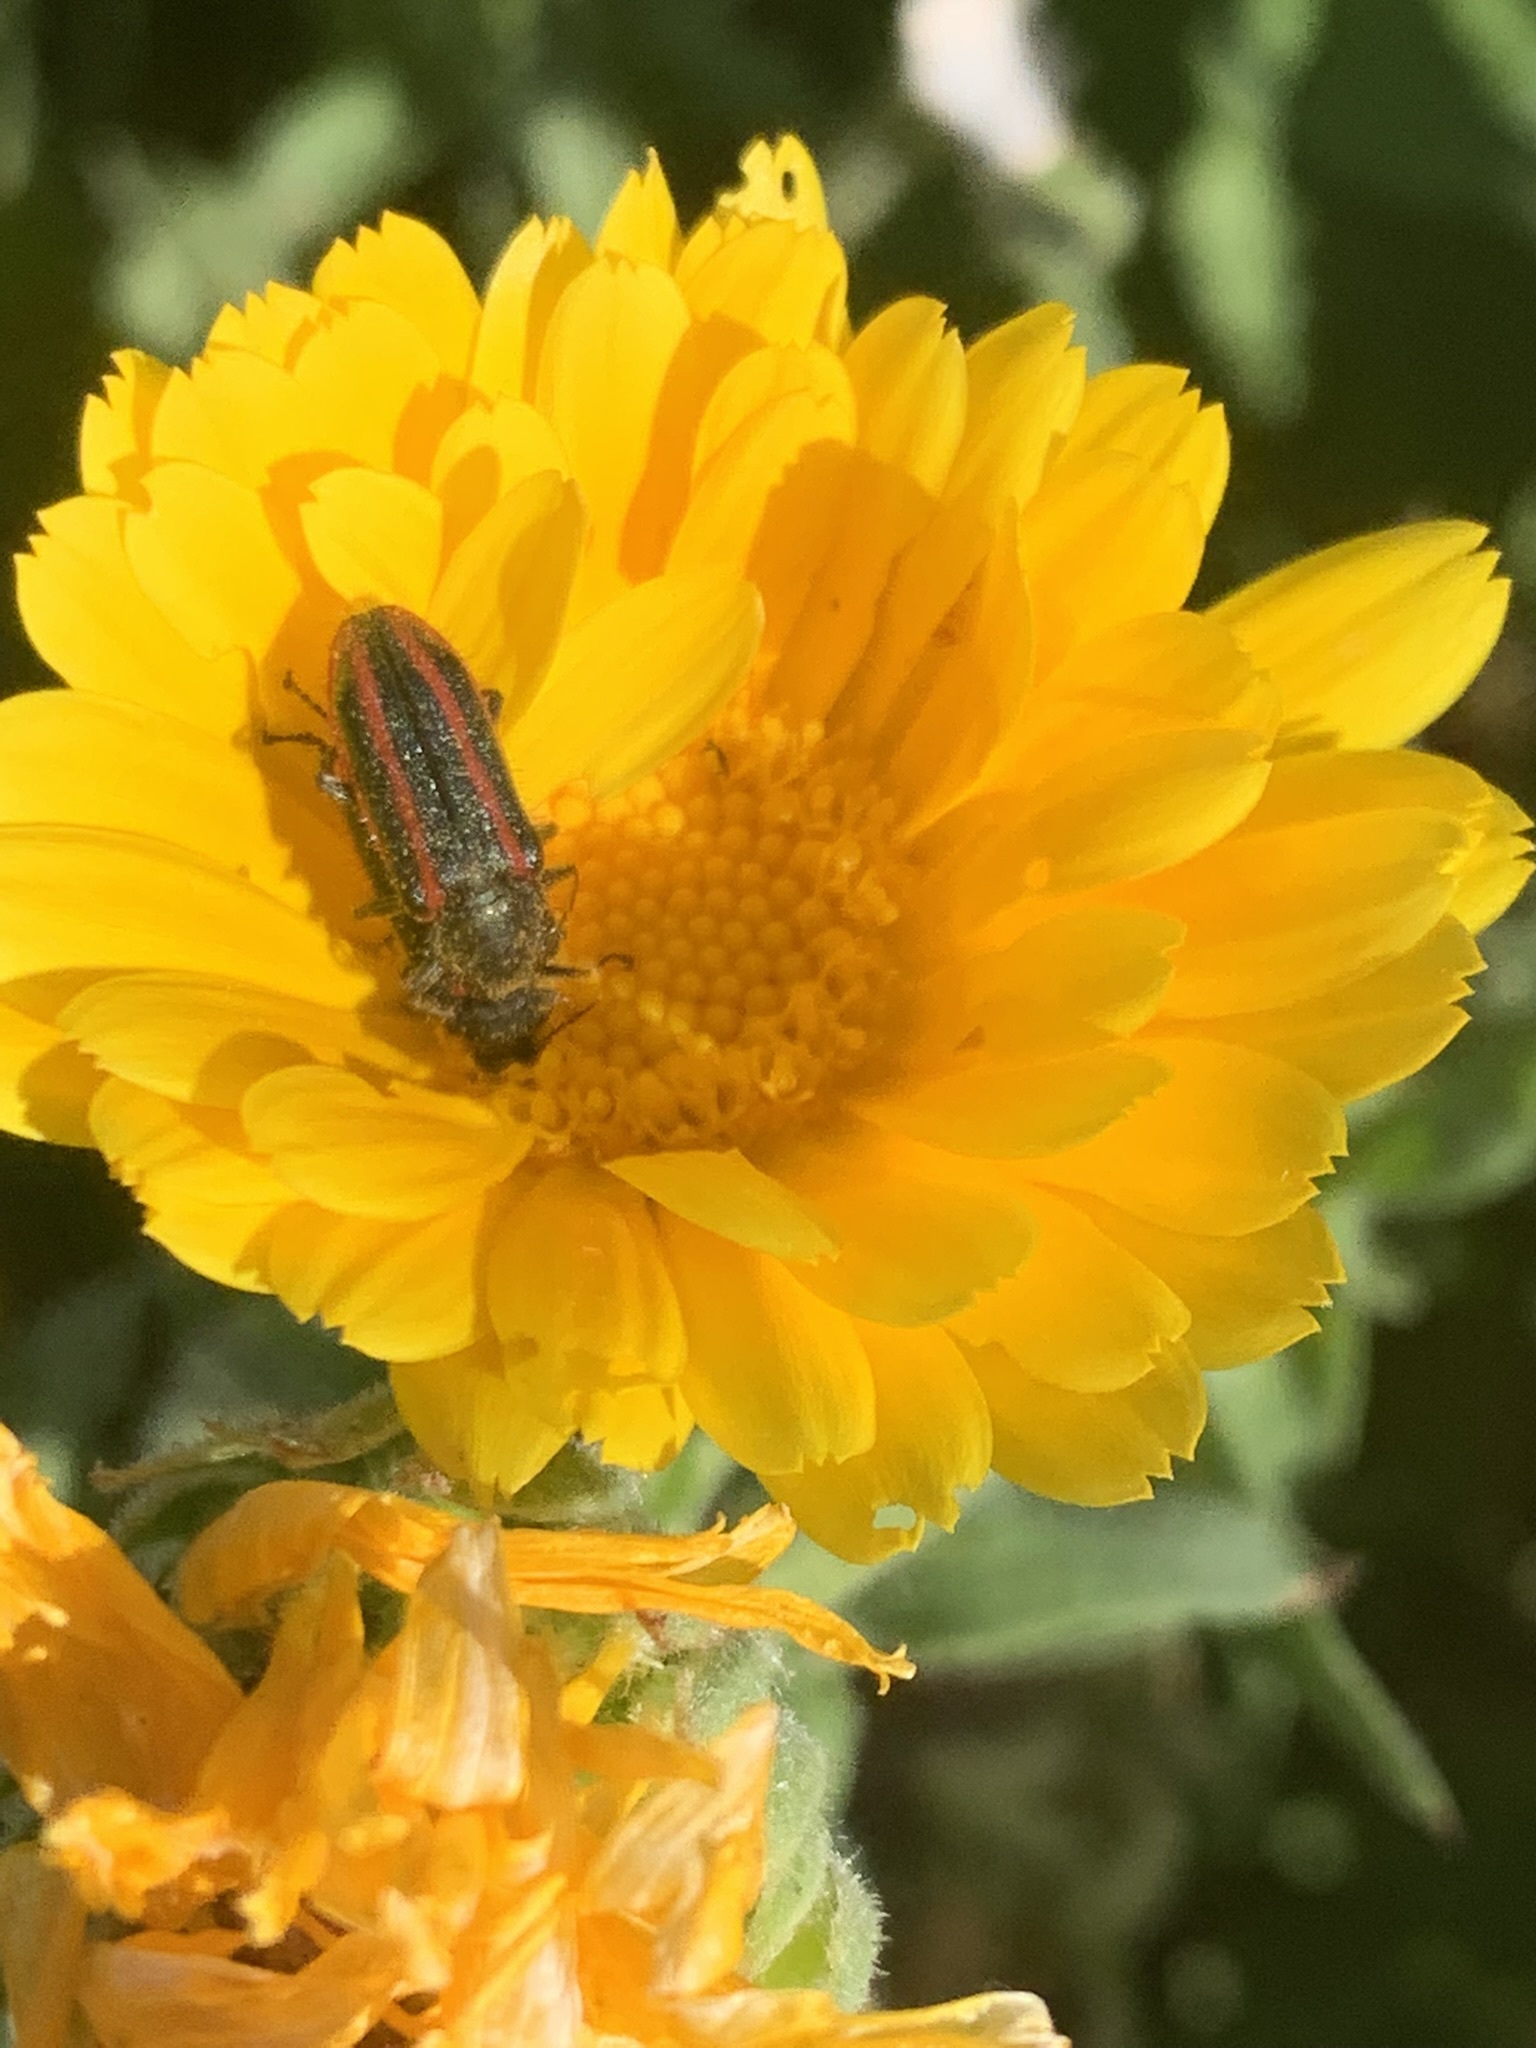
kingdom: Animalia
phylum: Arthropoda
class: Insecta
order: Coleoptera
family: Melyridae
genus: Astylus
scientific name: Astylus
